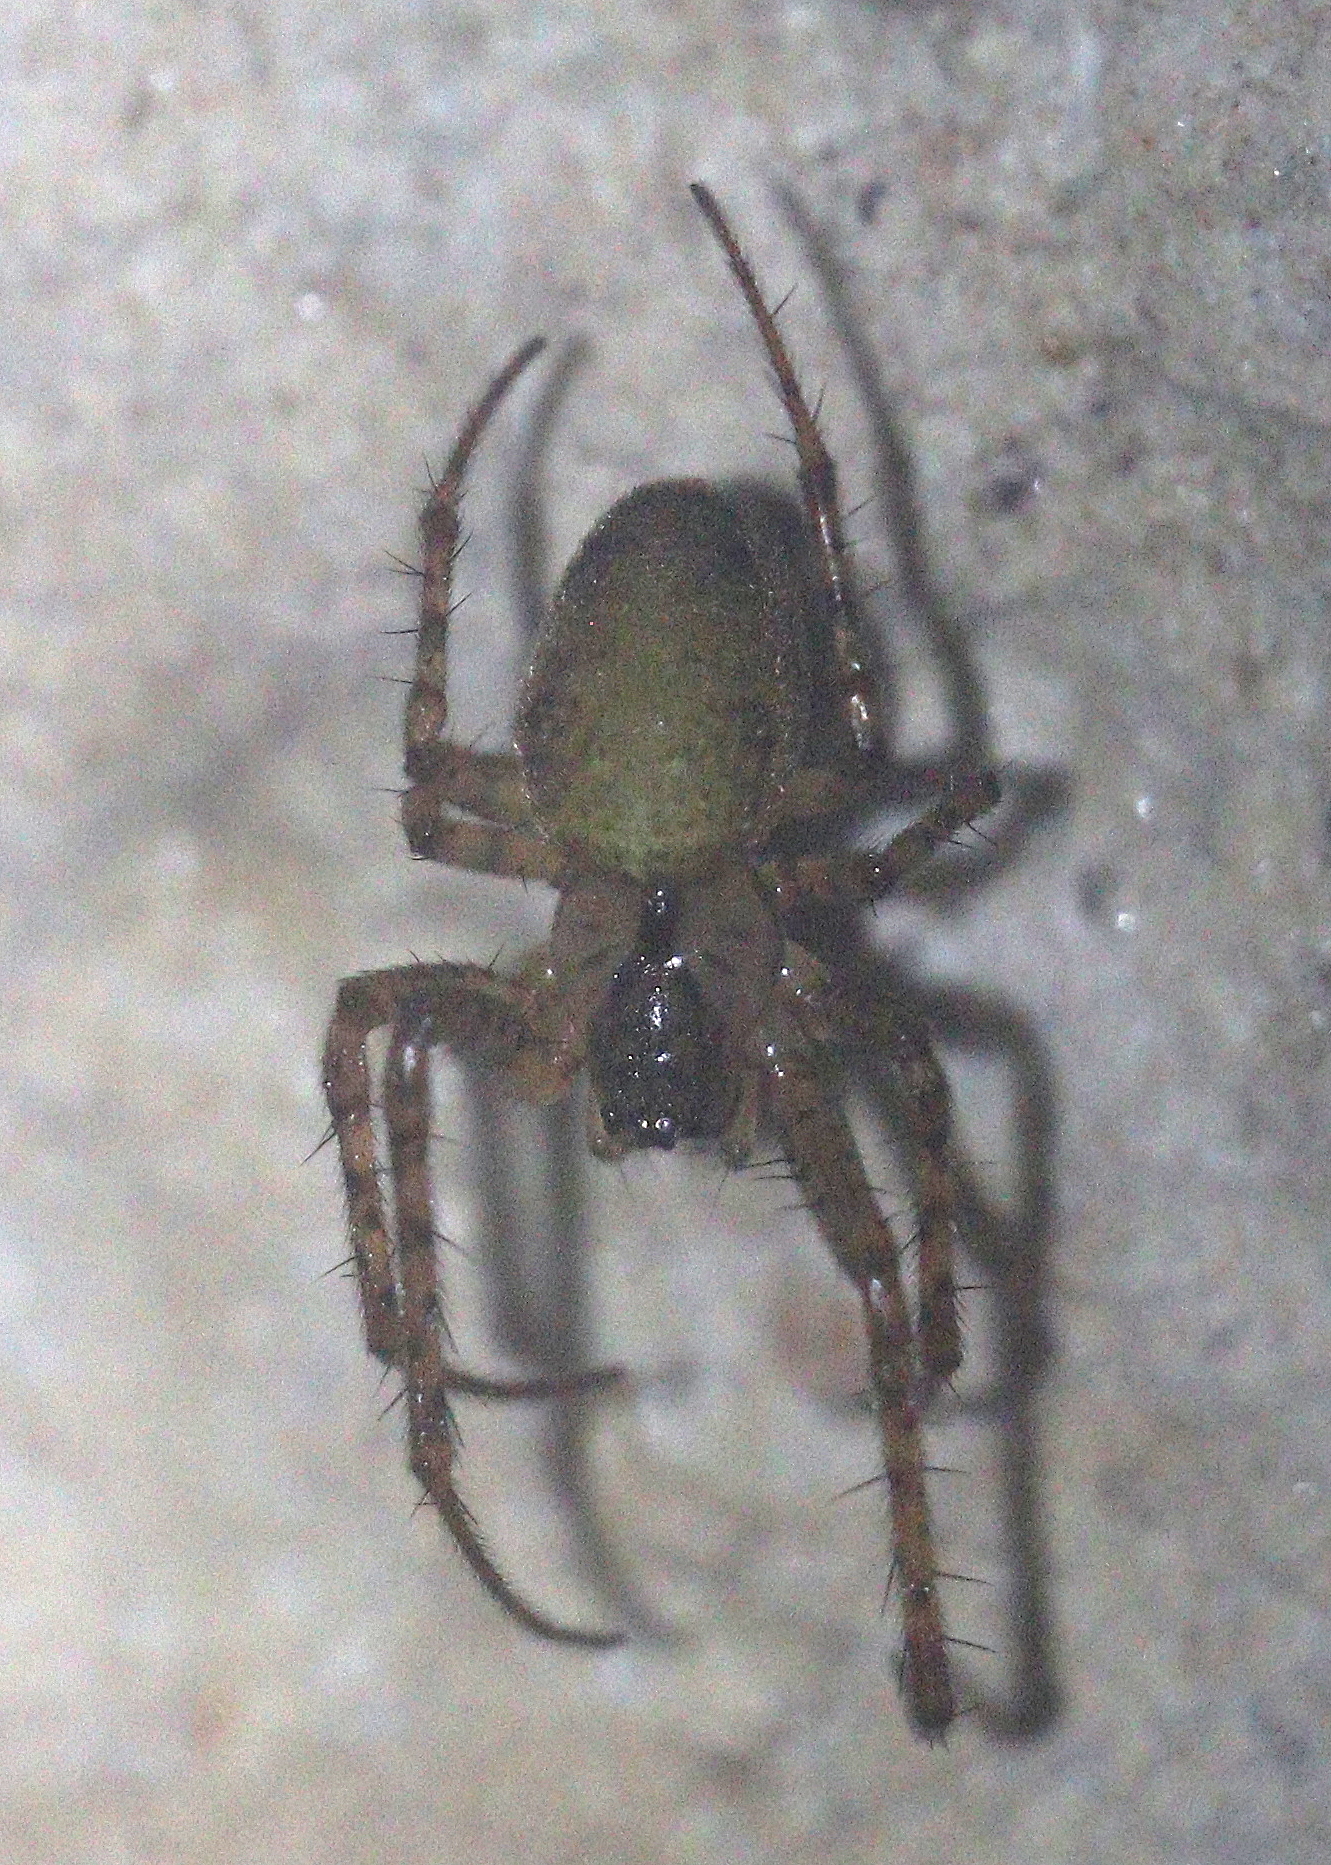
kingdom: Animalia
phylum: Arthropoda
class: Arachnida
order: Araneae
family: Tetragnathidae
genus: Metellina
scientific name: Metellina merianae
